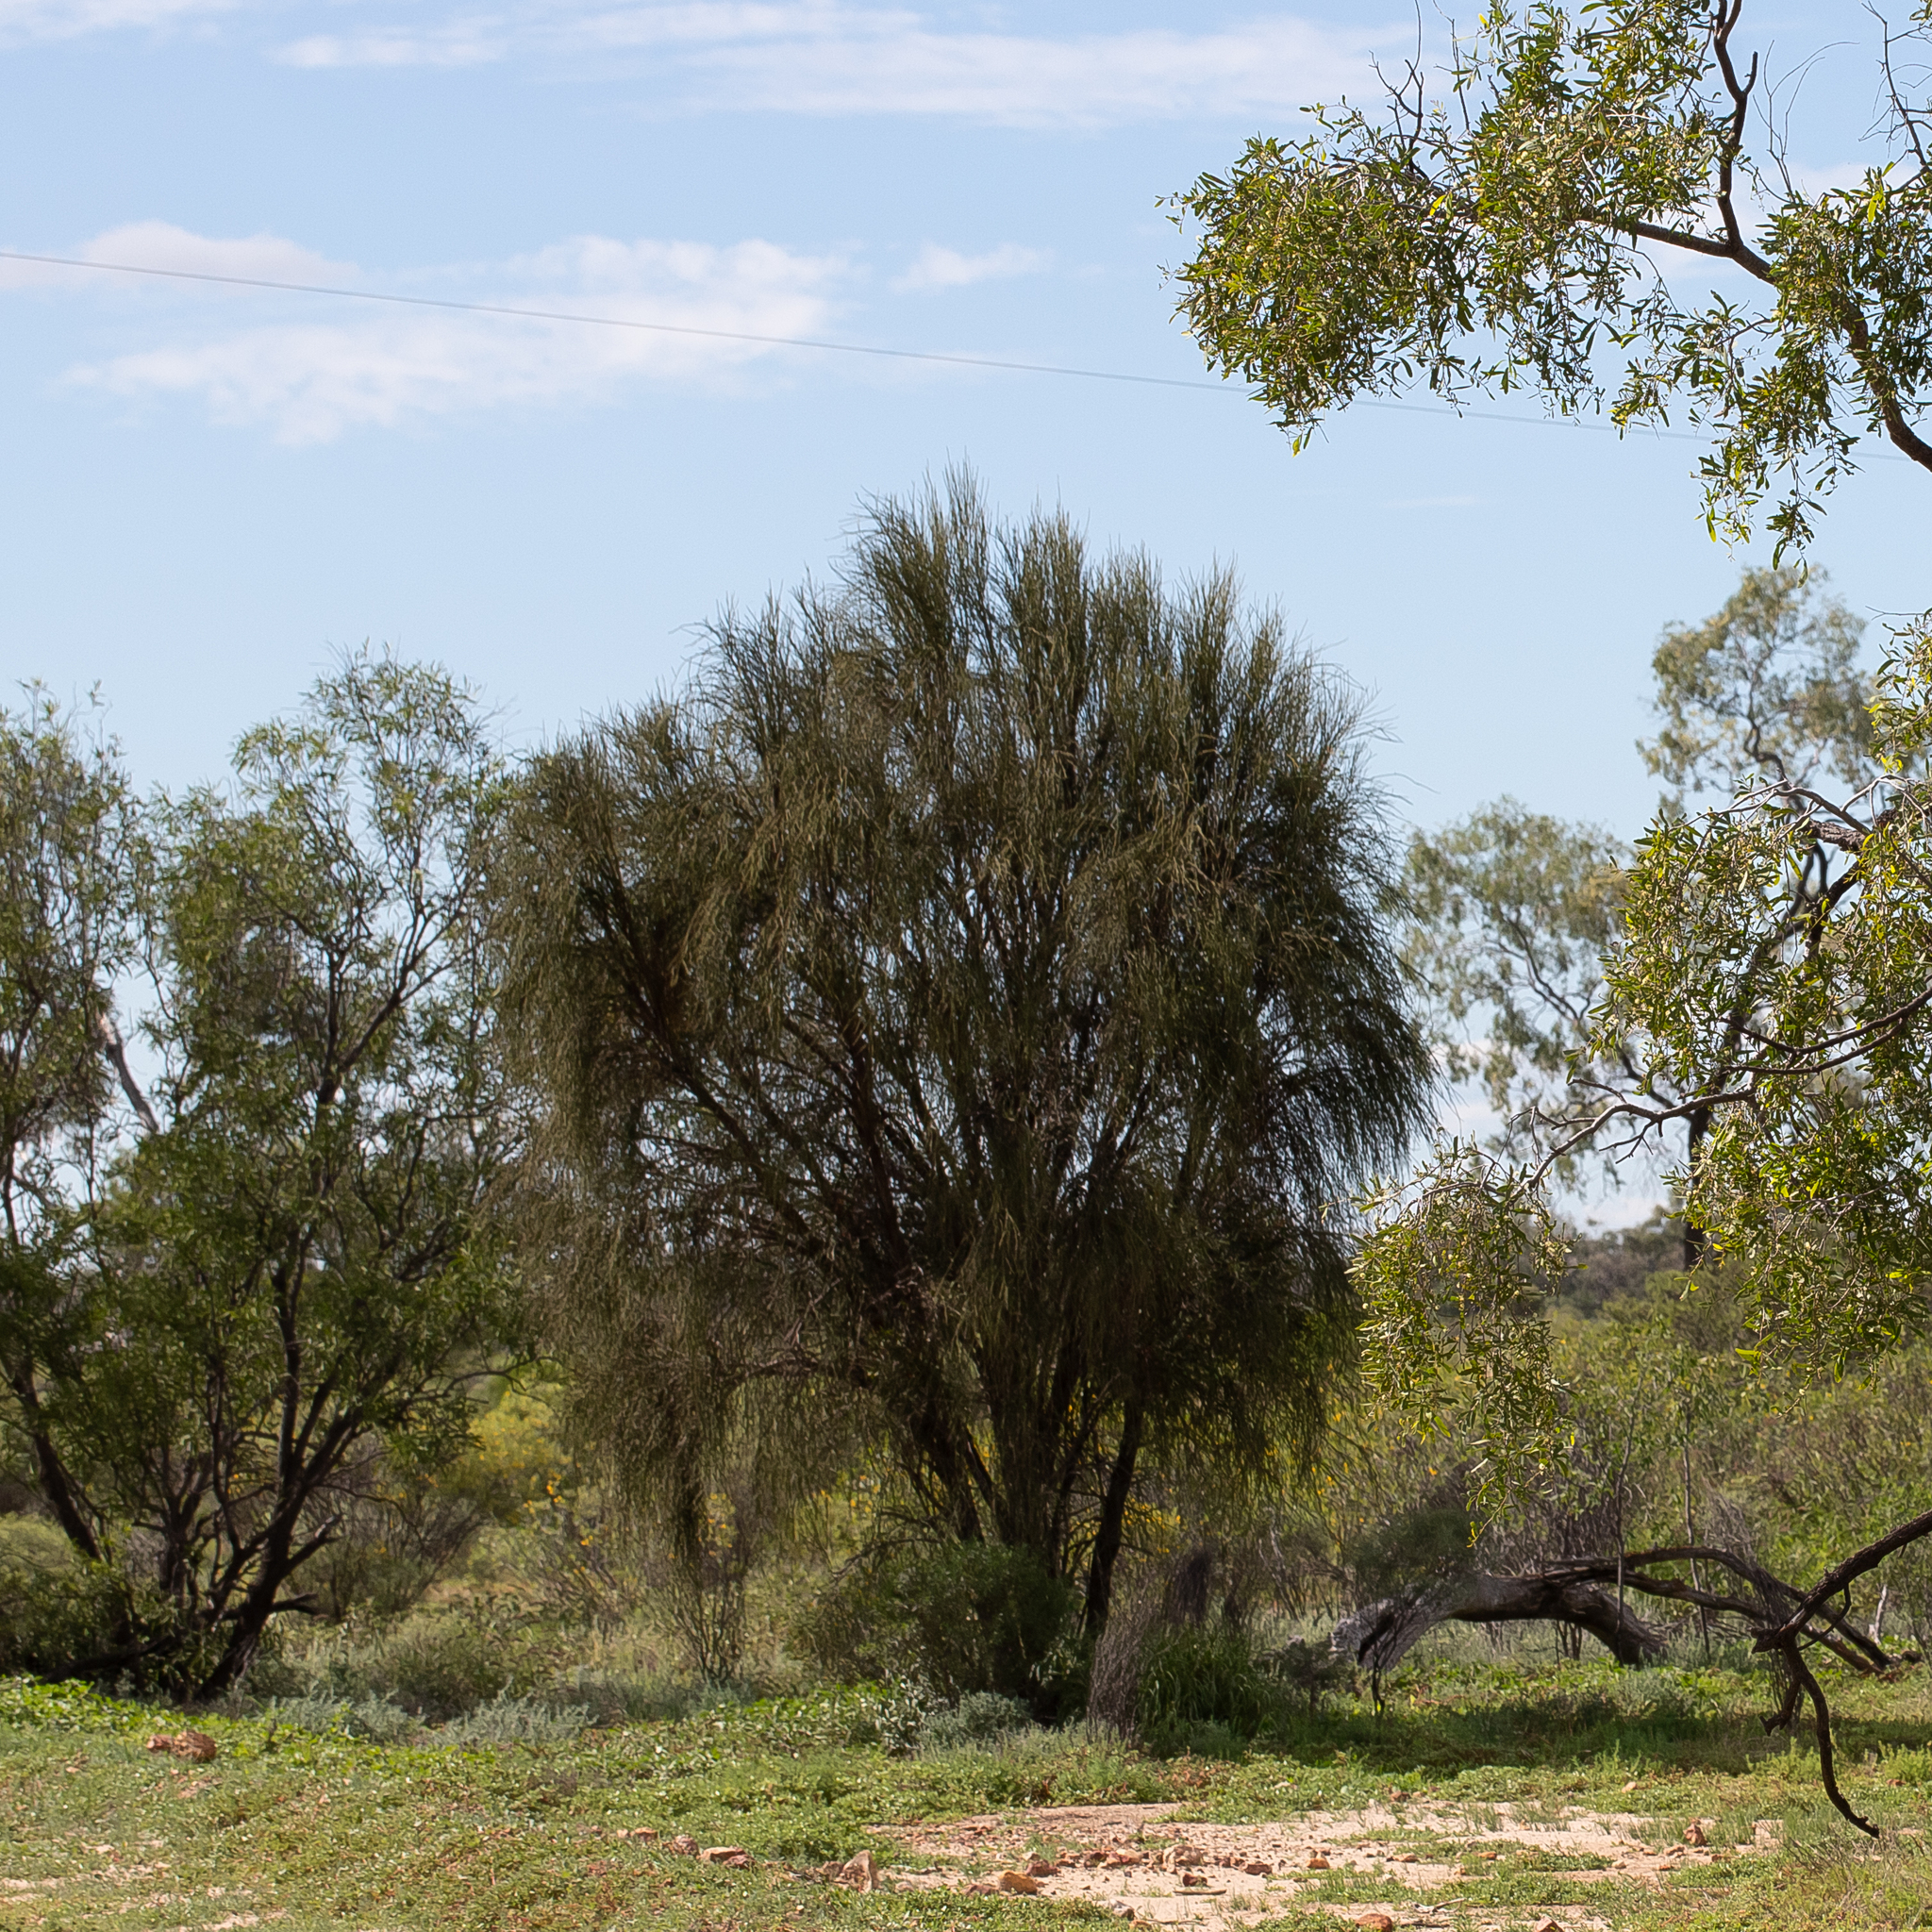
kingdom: Plantae
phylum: Tracheophyta
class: Magnoliopsida
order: Brassicales
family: Capparaceae
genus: Apophyllum
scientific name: Apophyllum anomalum
